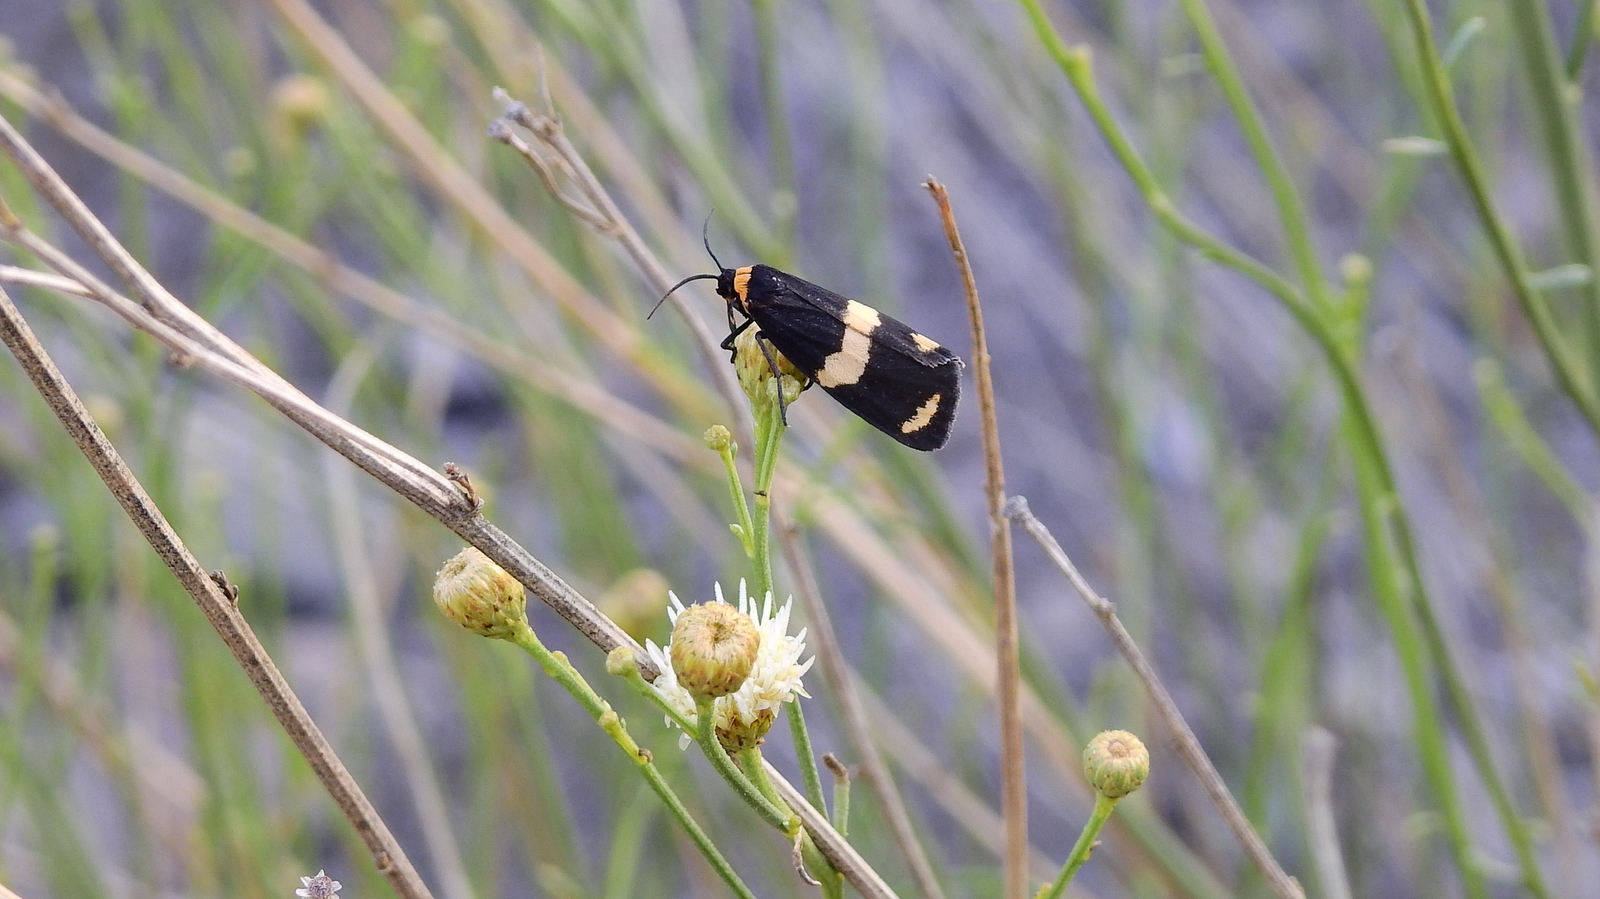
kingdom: Animalia
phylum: Arthropoda
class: Insecta
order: Lepidoptera
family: Erebidae
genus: Eudesmia
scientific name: Eudesmia
